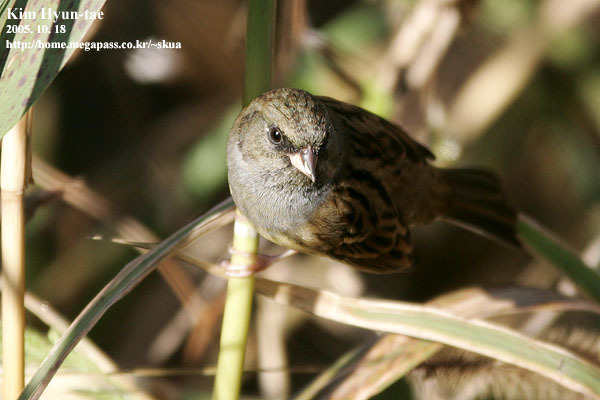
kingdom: Animalia
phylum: Chordata
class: Aves
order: Passeriformes
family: Emberizidae
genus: Emberiza
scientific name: Emberiza spodocephala
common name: Black-faced bunting
